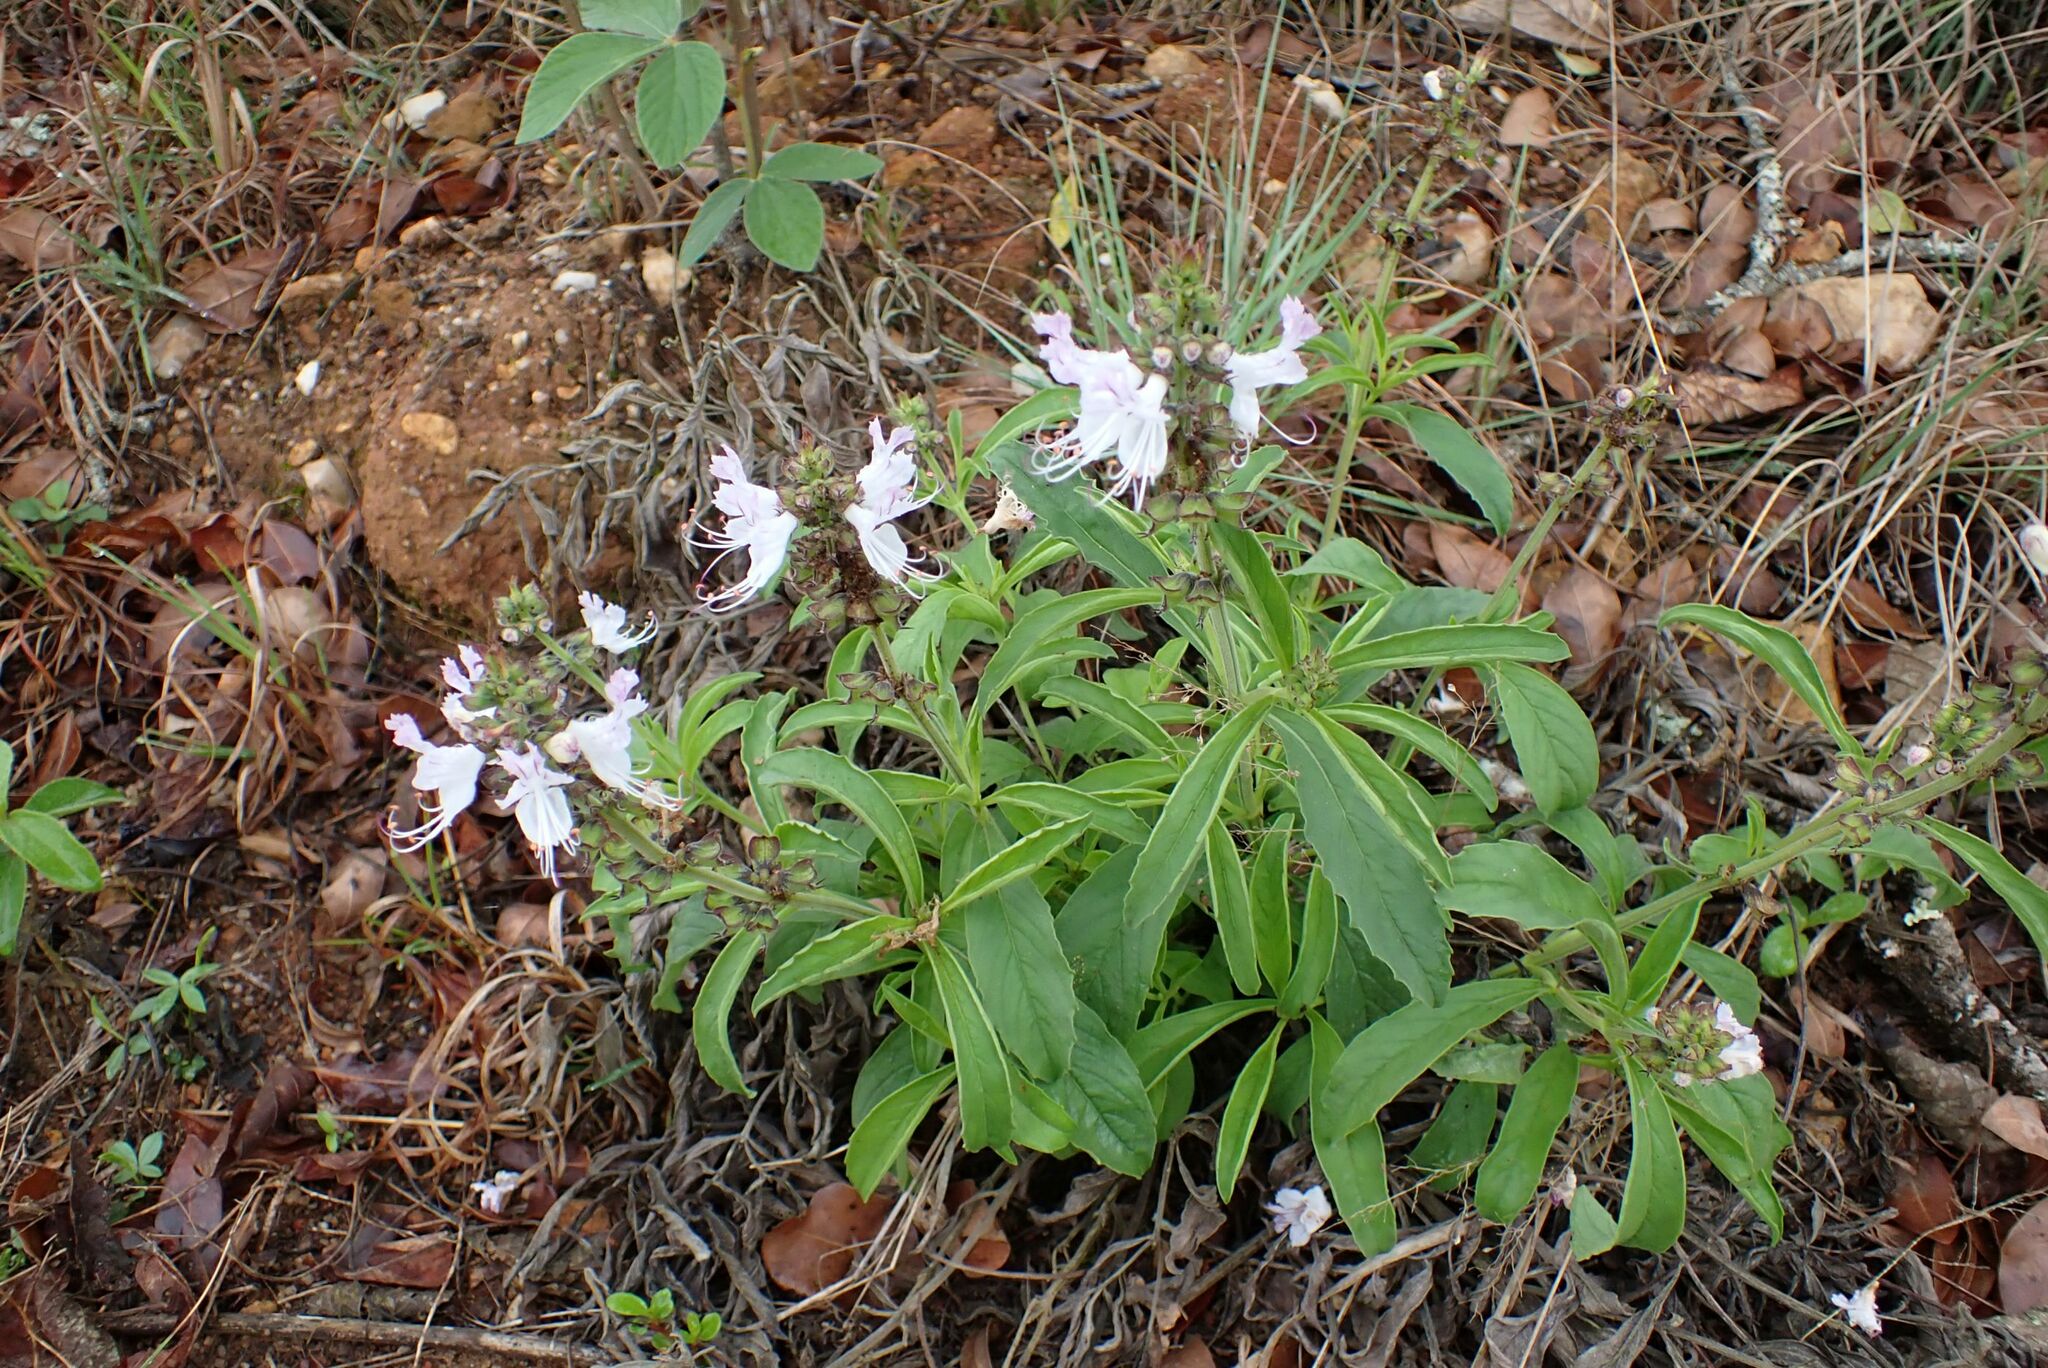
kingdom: Plantae
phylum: Tracheophyta
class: Magnoliopsida
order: Lamiales
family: Lamiaceae
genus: Ocimum
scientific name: Ocimum obovatum
